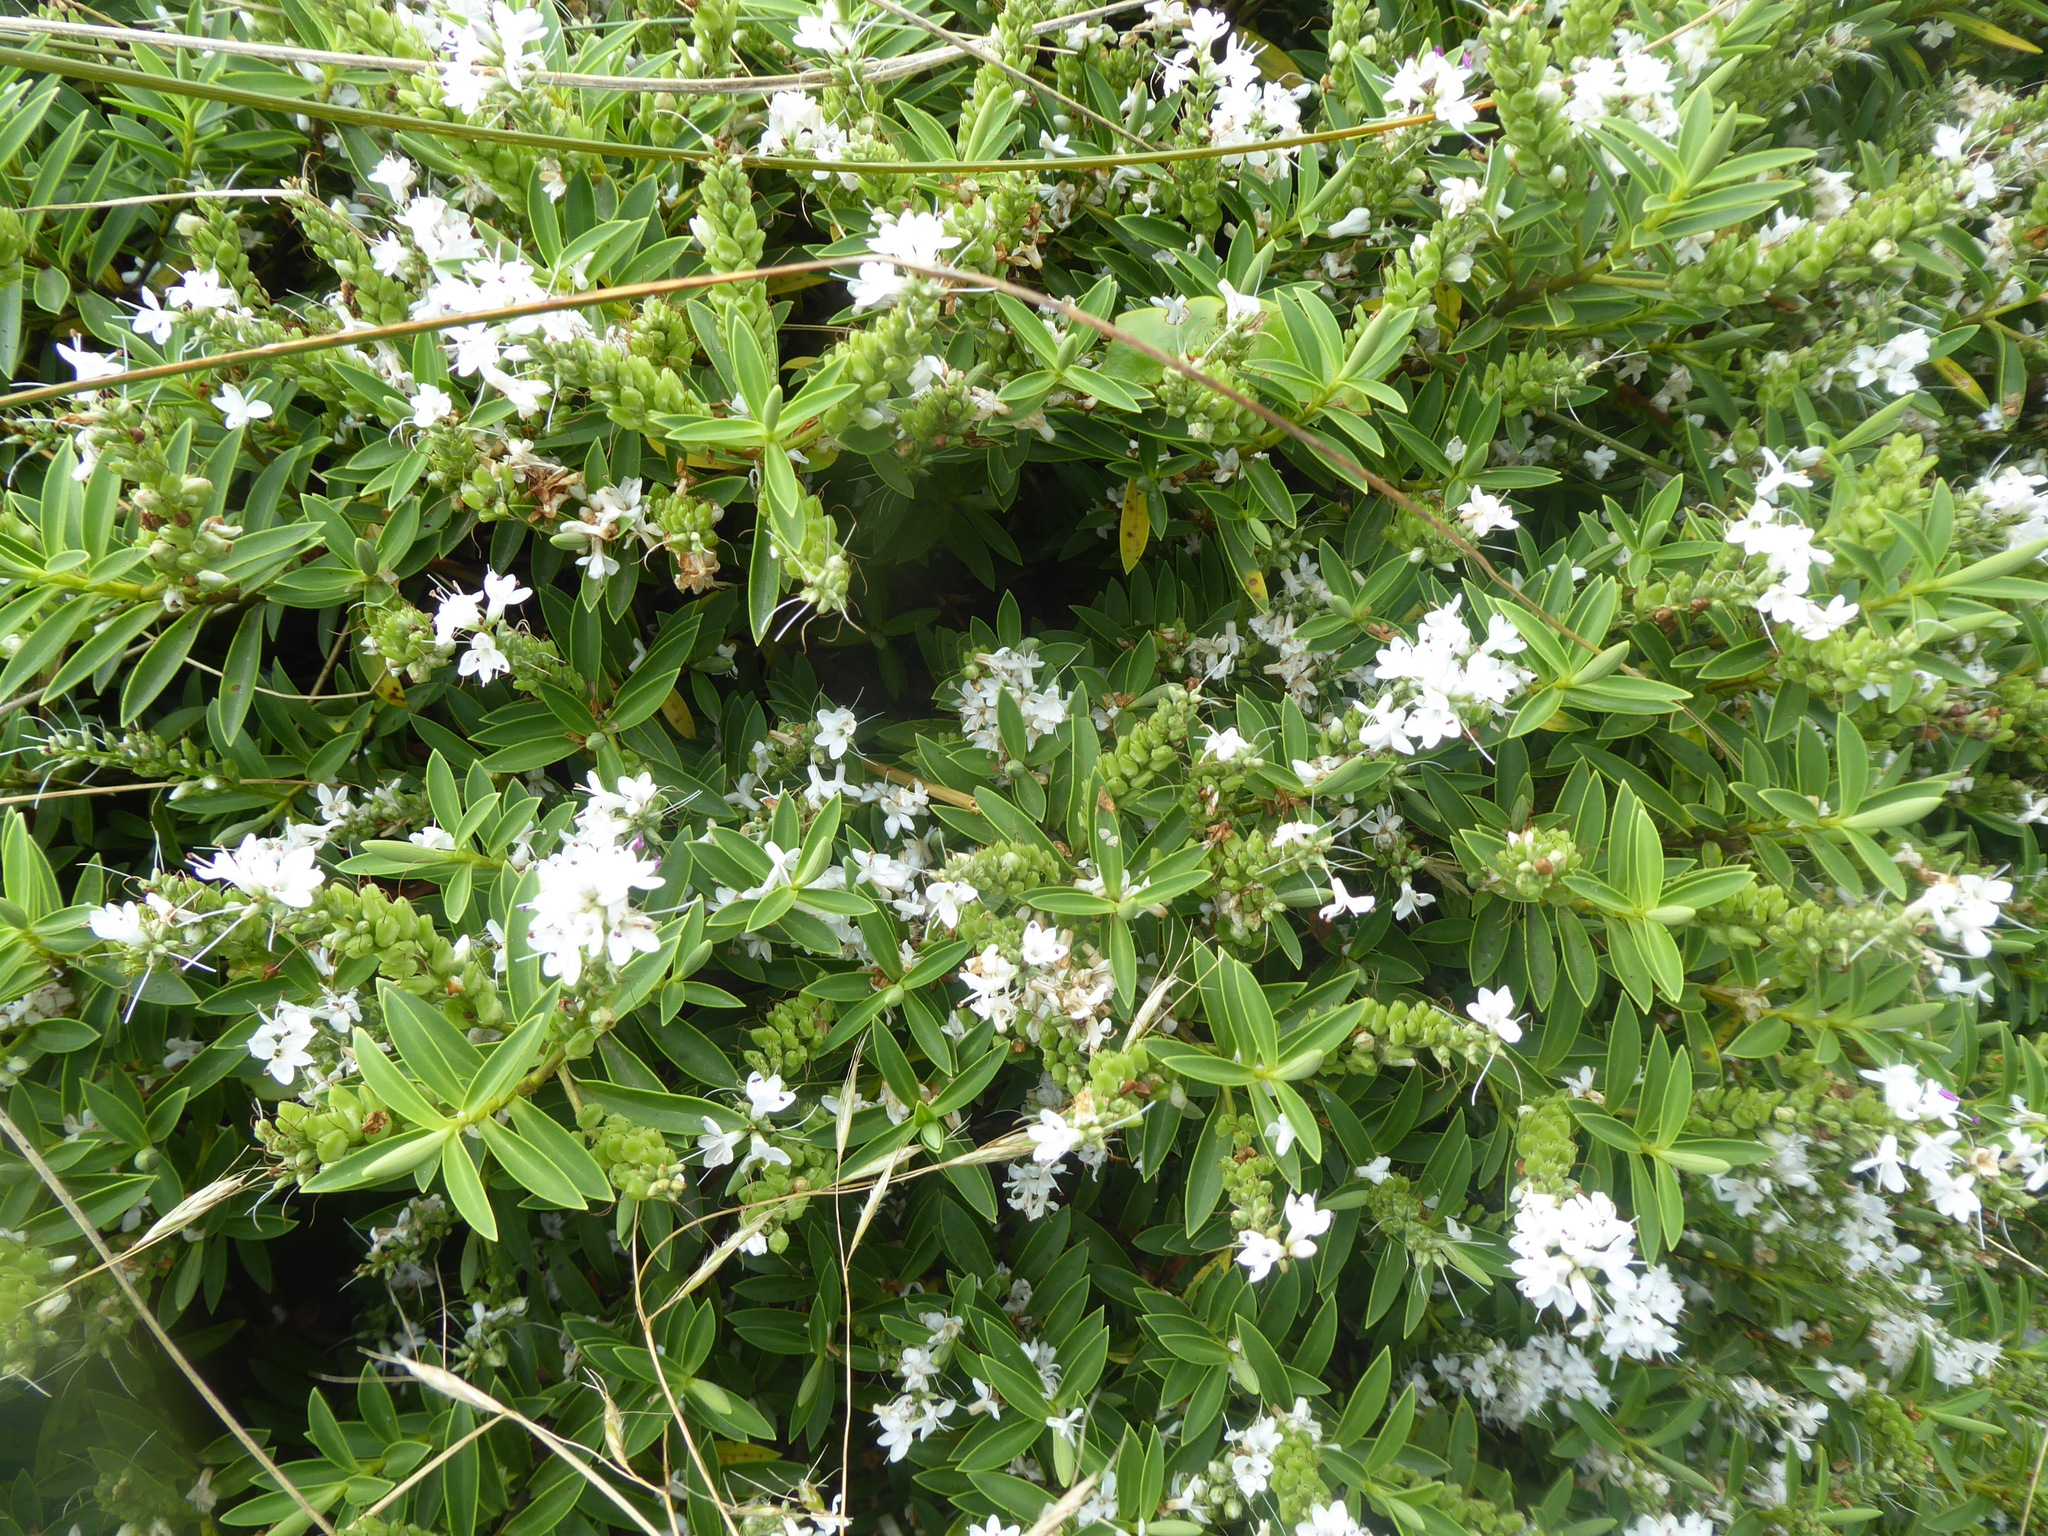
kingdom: Plantae
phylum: Tracheophyta
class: Magnoliopsida
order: Lamiales
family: Plantaginaceae
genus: Veronica
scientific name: Veronica subalpina
